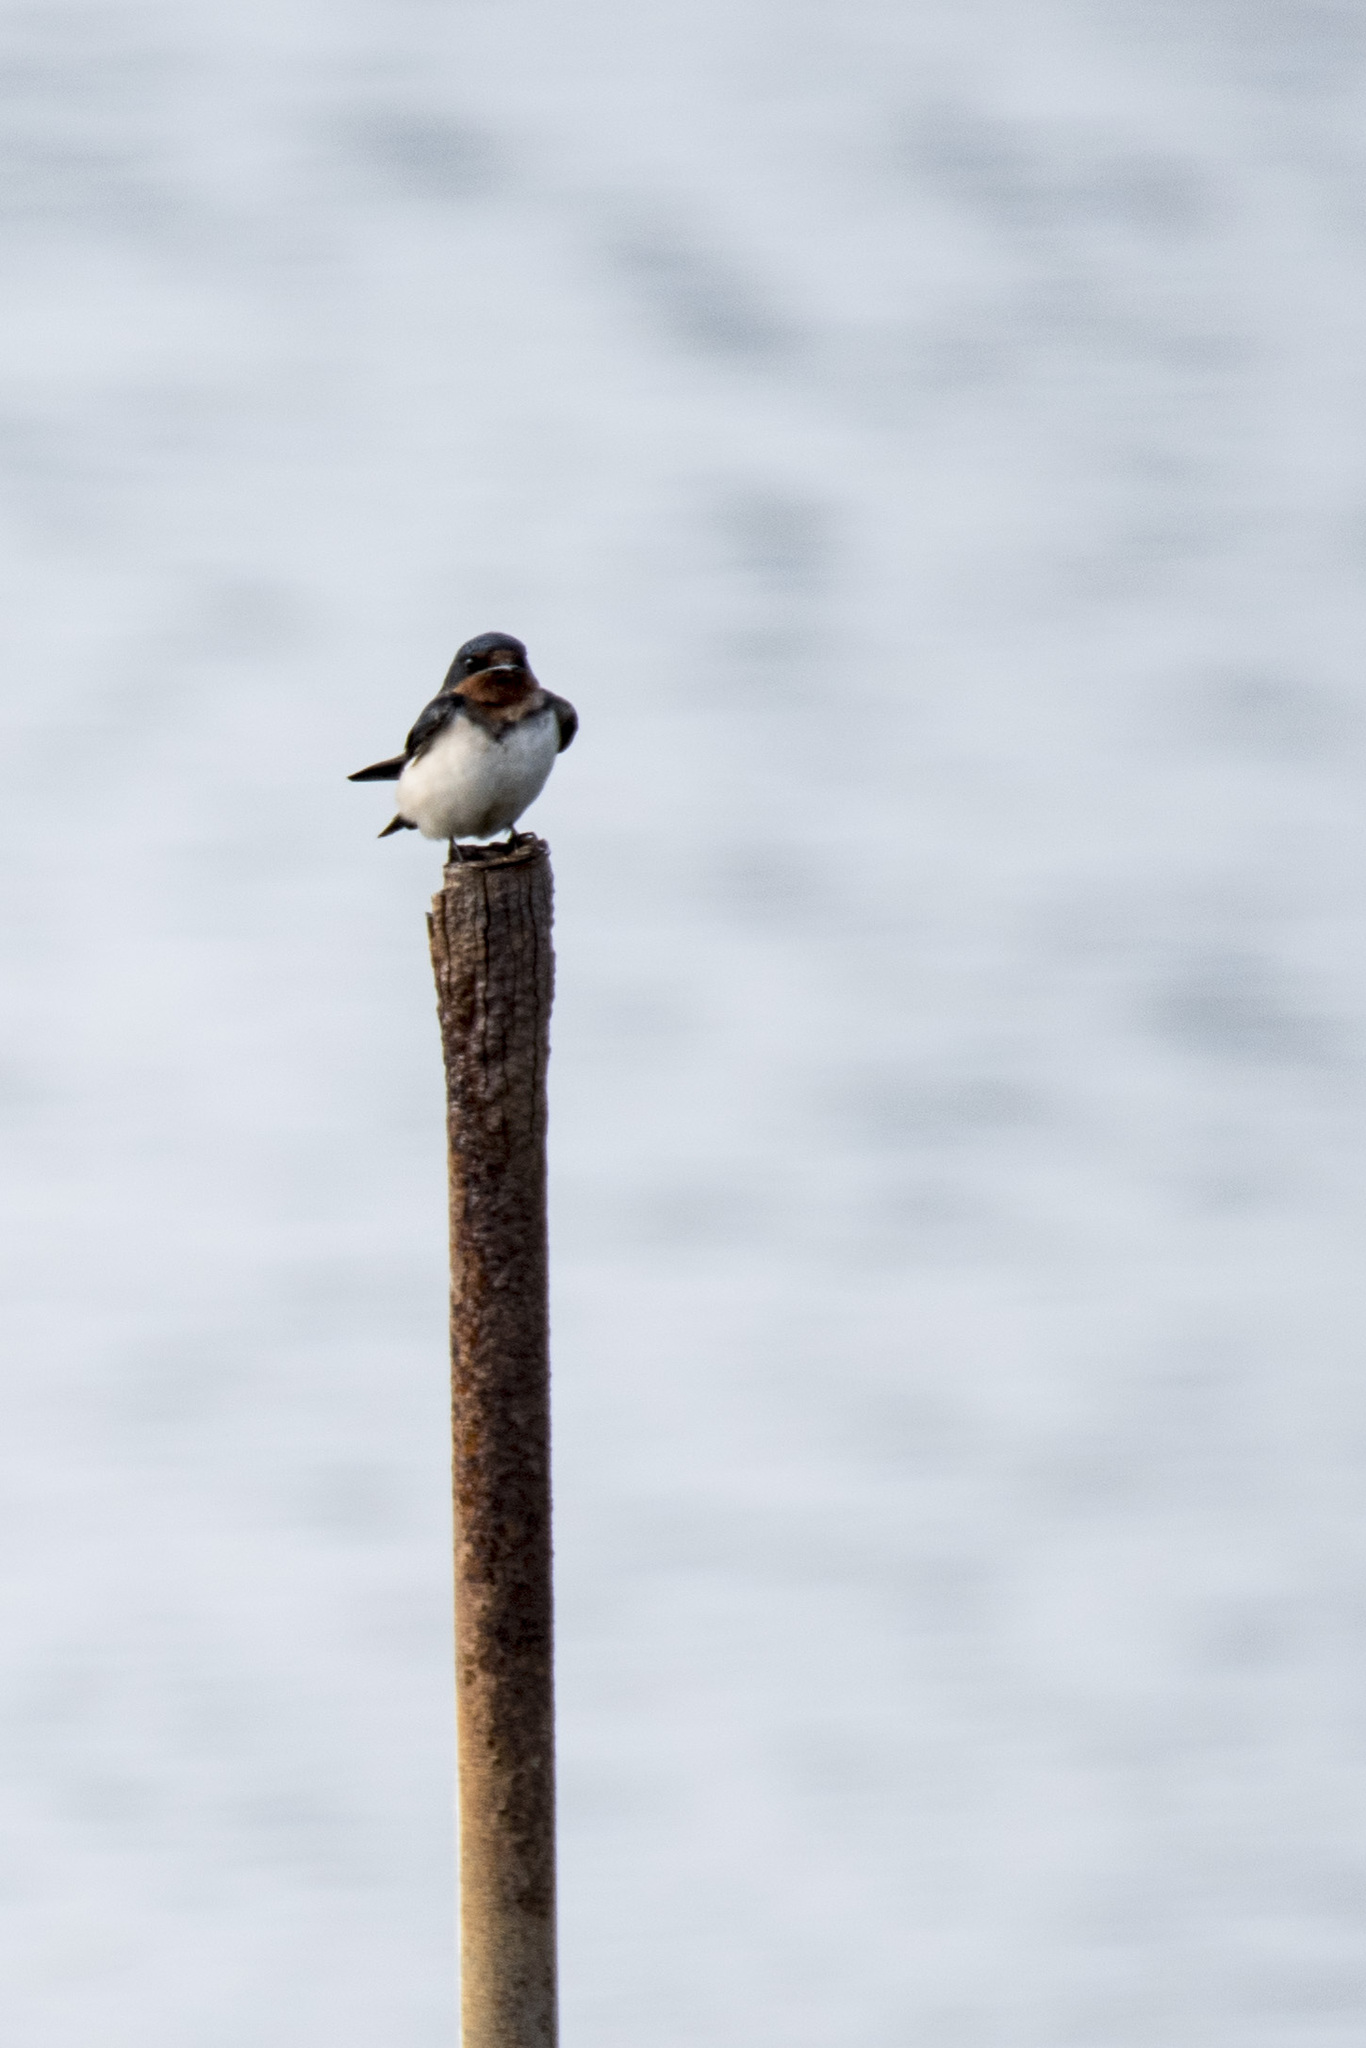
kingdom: Animalia
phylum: Chordata
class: Aves
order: Passeriformes
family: Hirundinidae
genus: Hirundo
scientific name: Hirundo rustica
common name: Barn swallow
